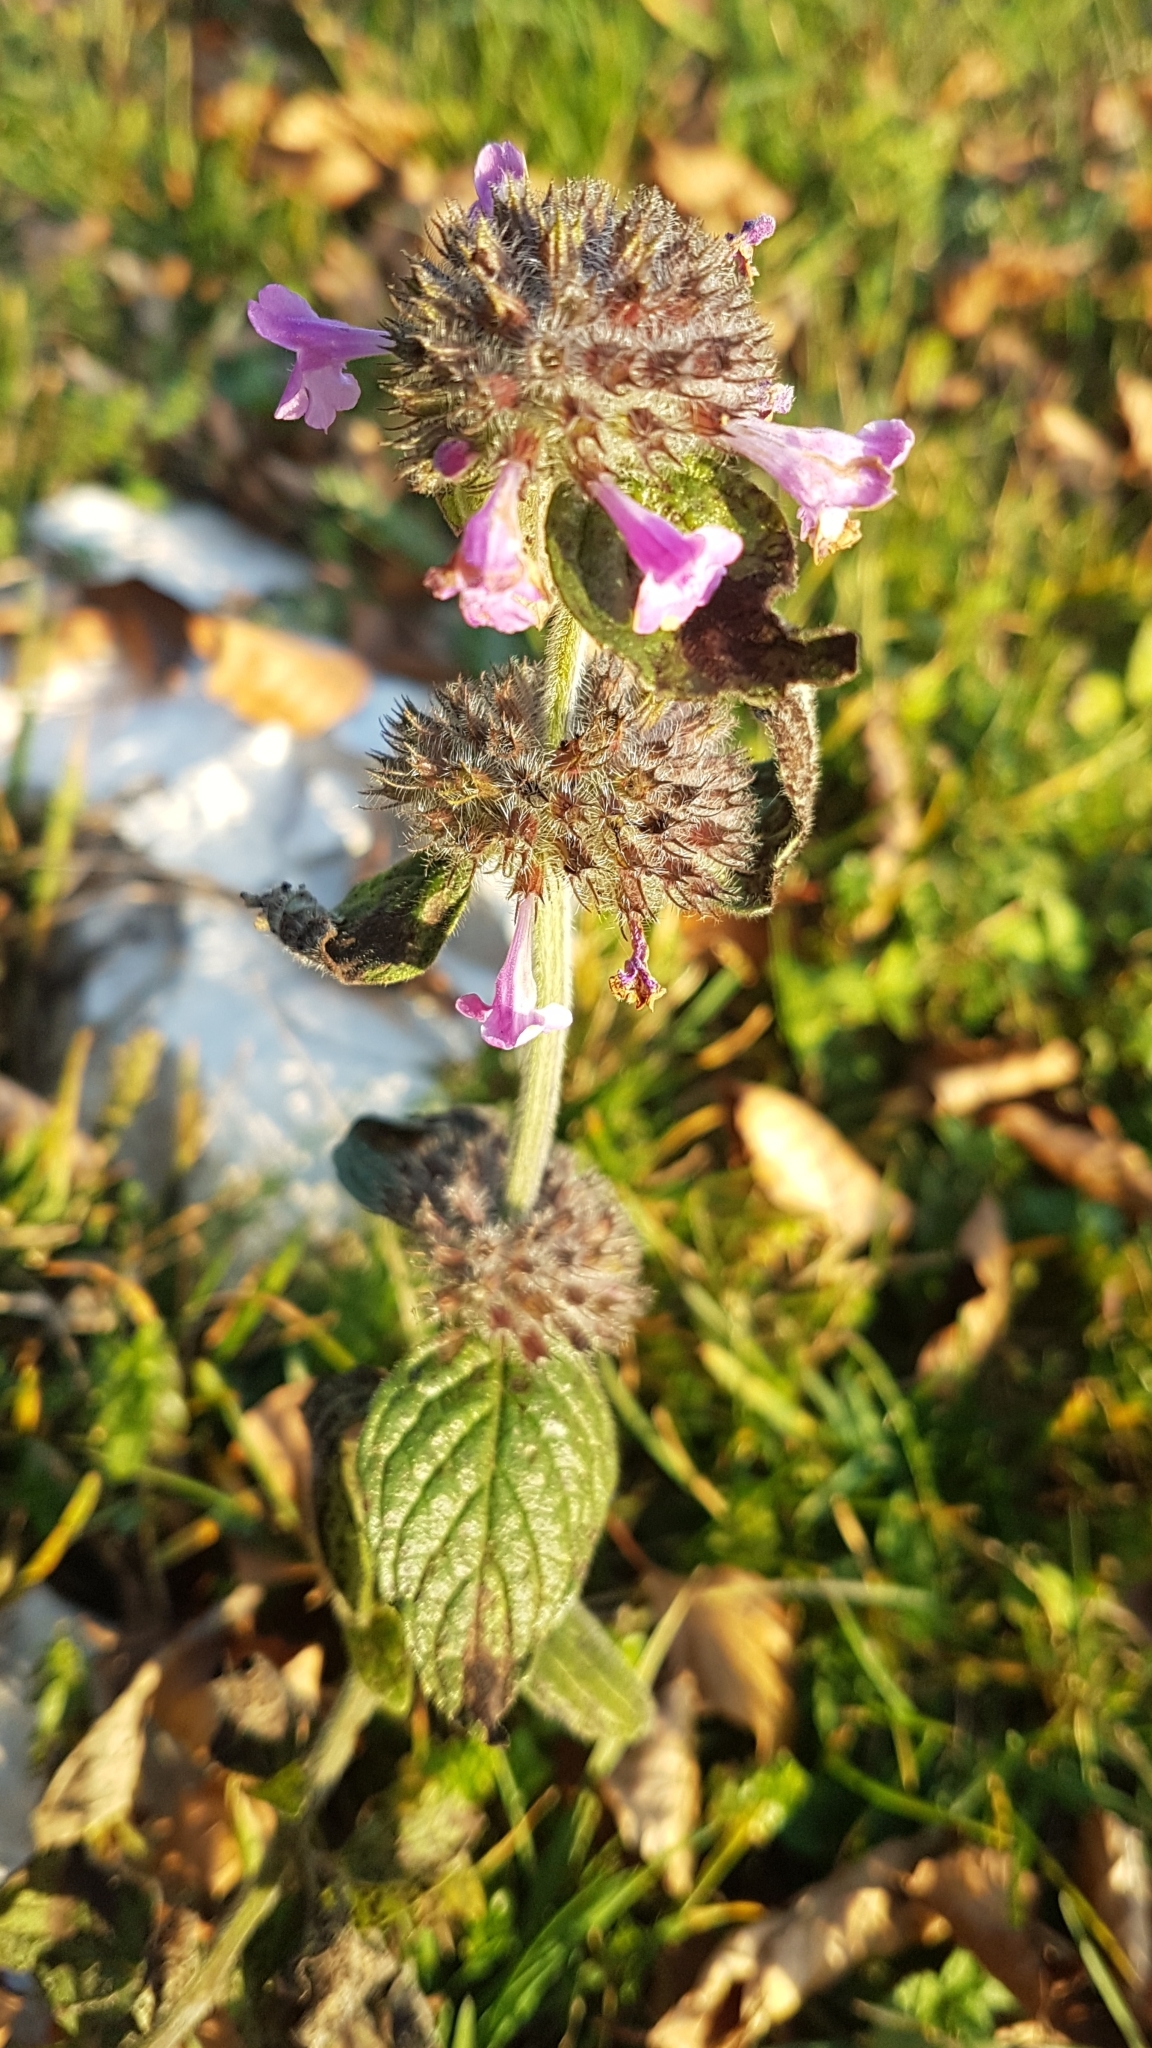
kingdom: Plantae
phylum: Tracheophyta
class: Magnoliopsida
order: Lamiales
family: Lamiaceae
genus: Clinopodium
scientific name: Clinopodium vulgare
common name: Wild basil
